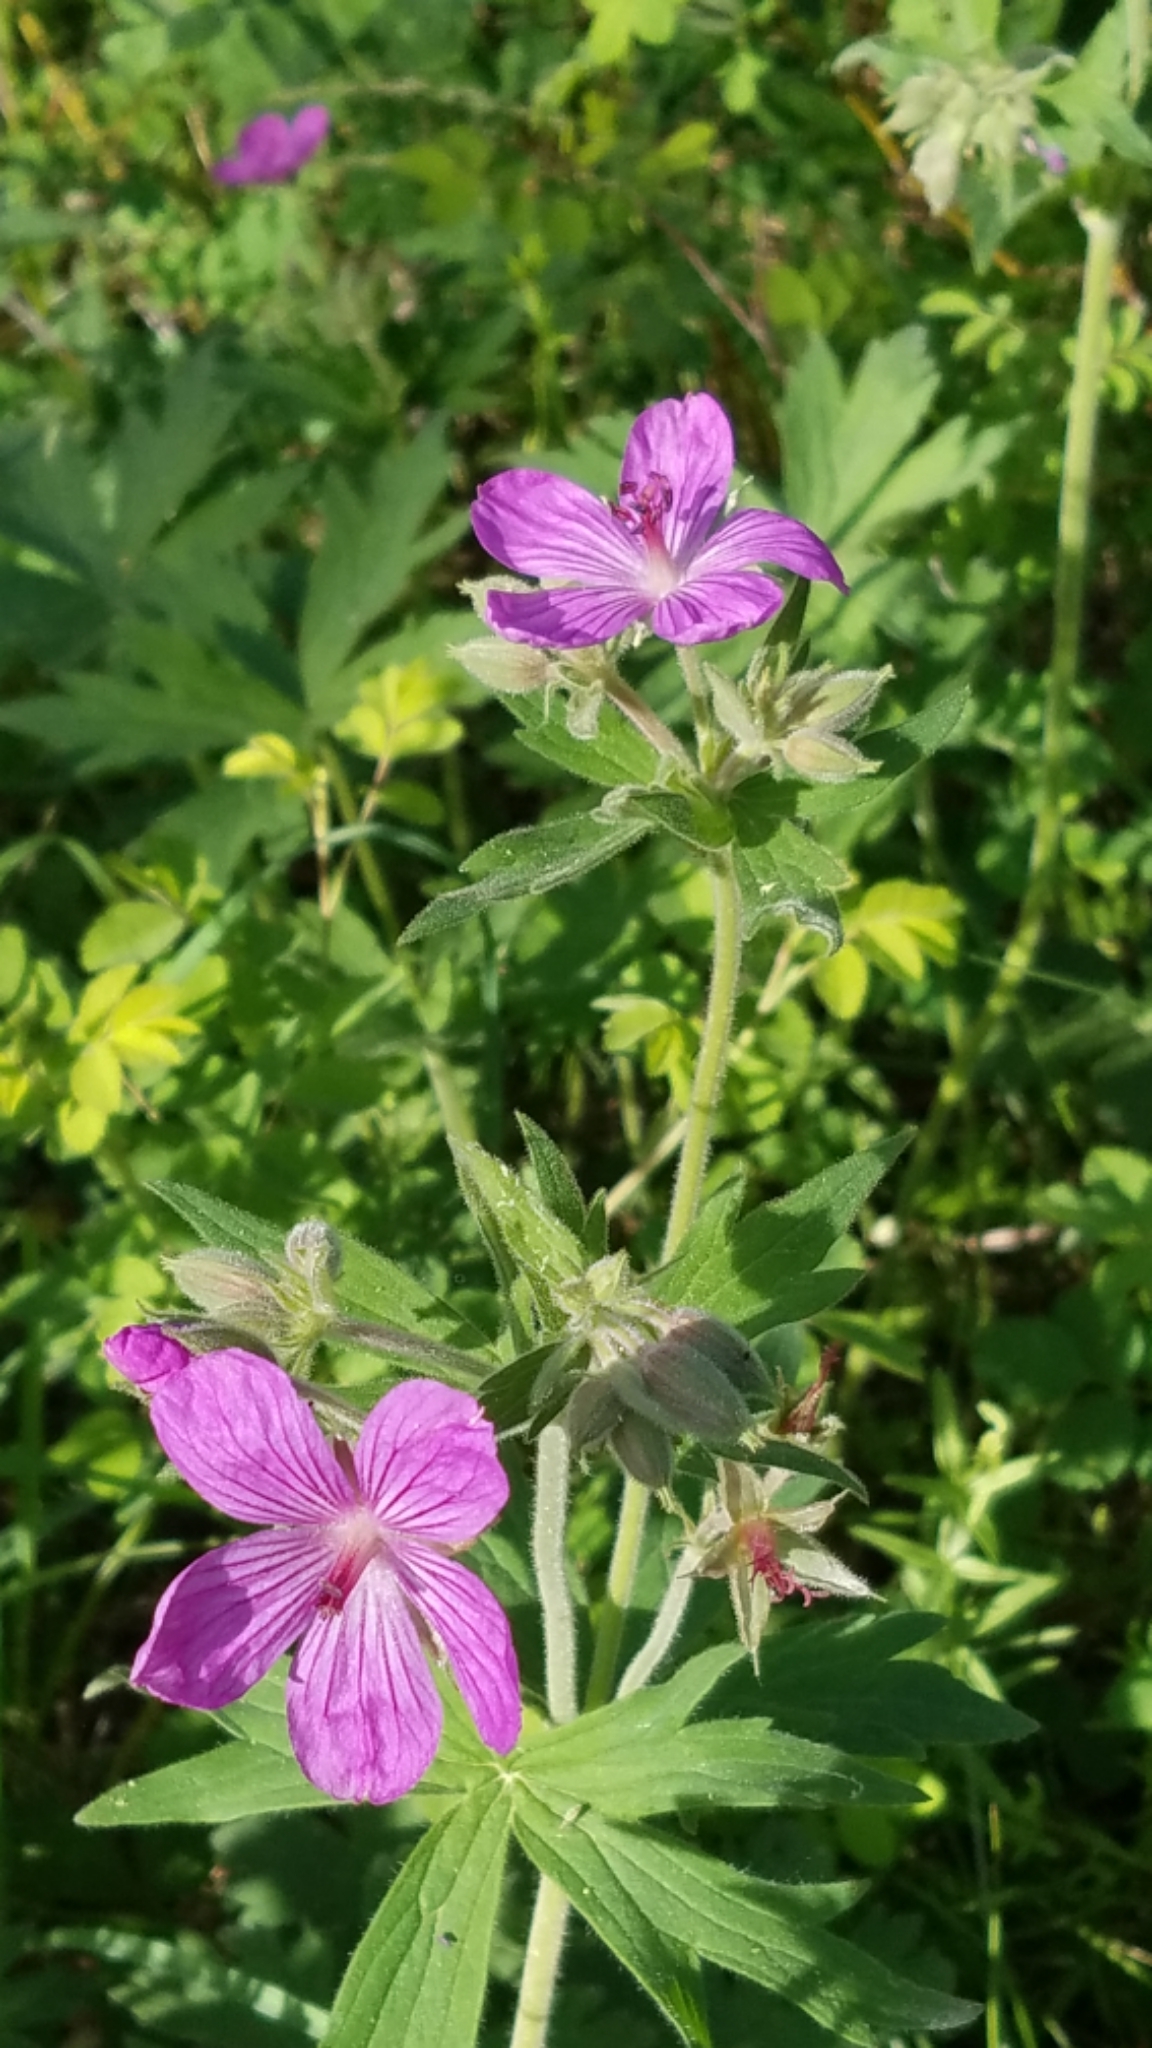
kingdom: Plantae
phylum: Tracheophyta
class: Magnoliopsida
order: Geraniales
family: Geraniaceae
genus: Geranium
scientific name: Geranium viscosissimum
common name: Purple geranium
